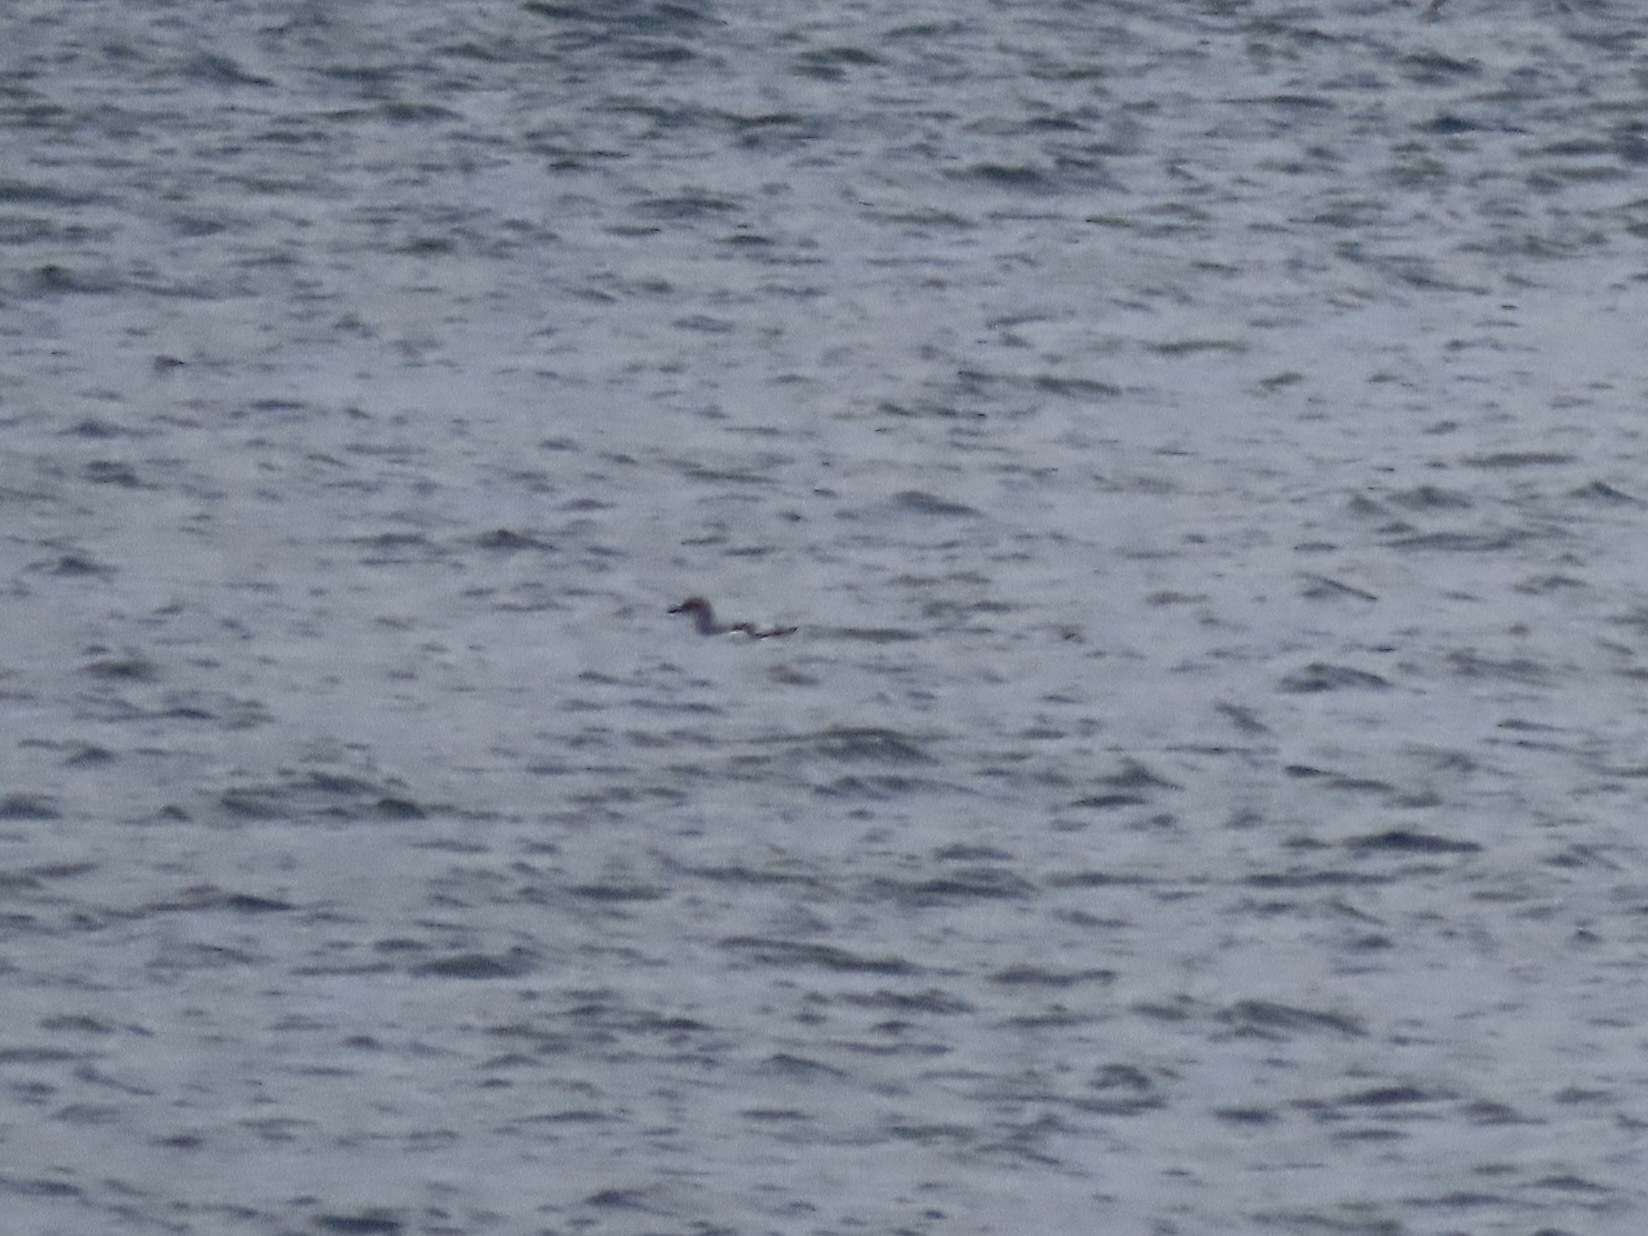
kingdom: Animalia
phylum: Chordata
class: Aves
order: Charadriiformes
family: Alcidae
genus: Cepphus
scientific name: Cepphus columba
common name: Pigeon guillemot
